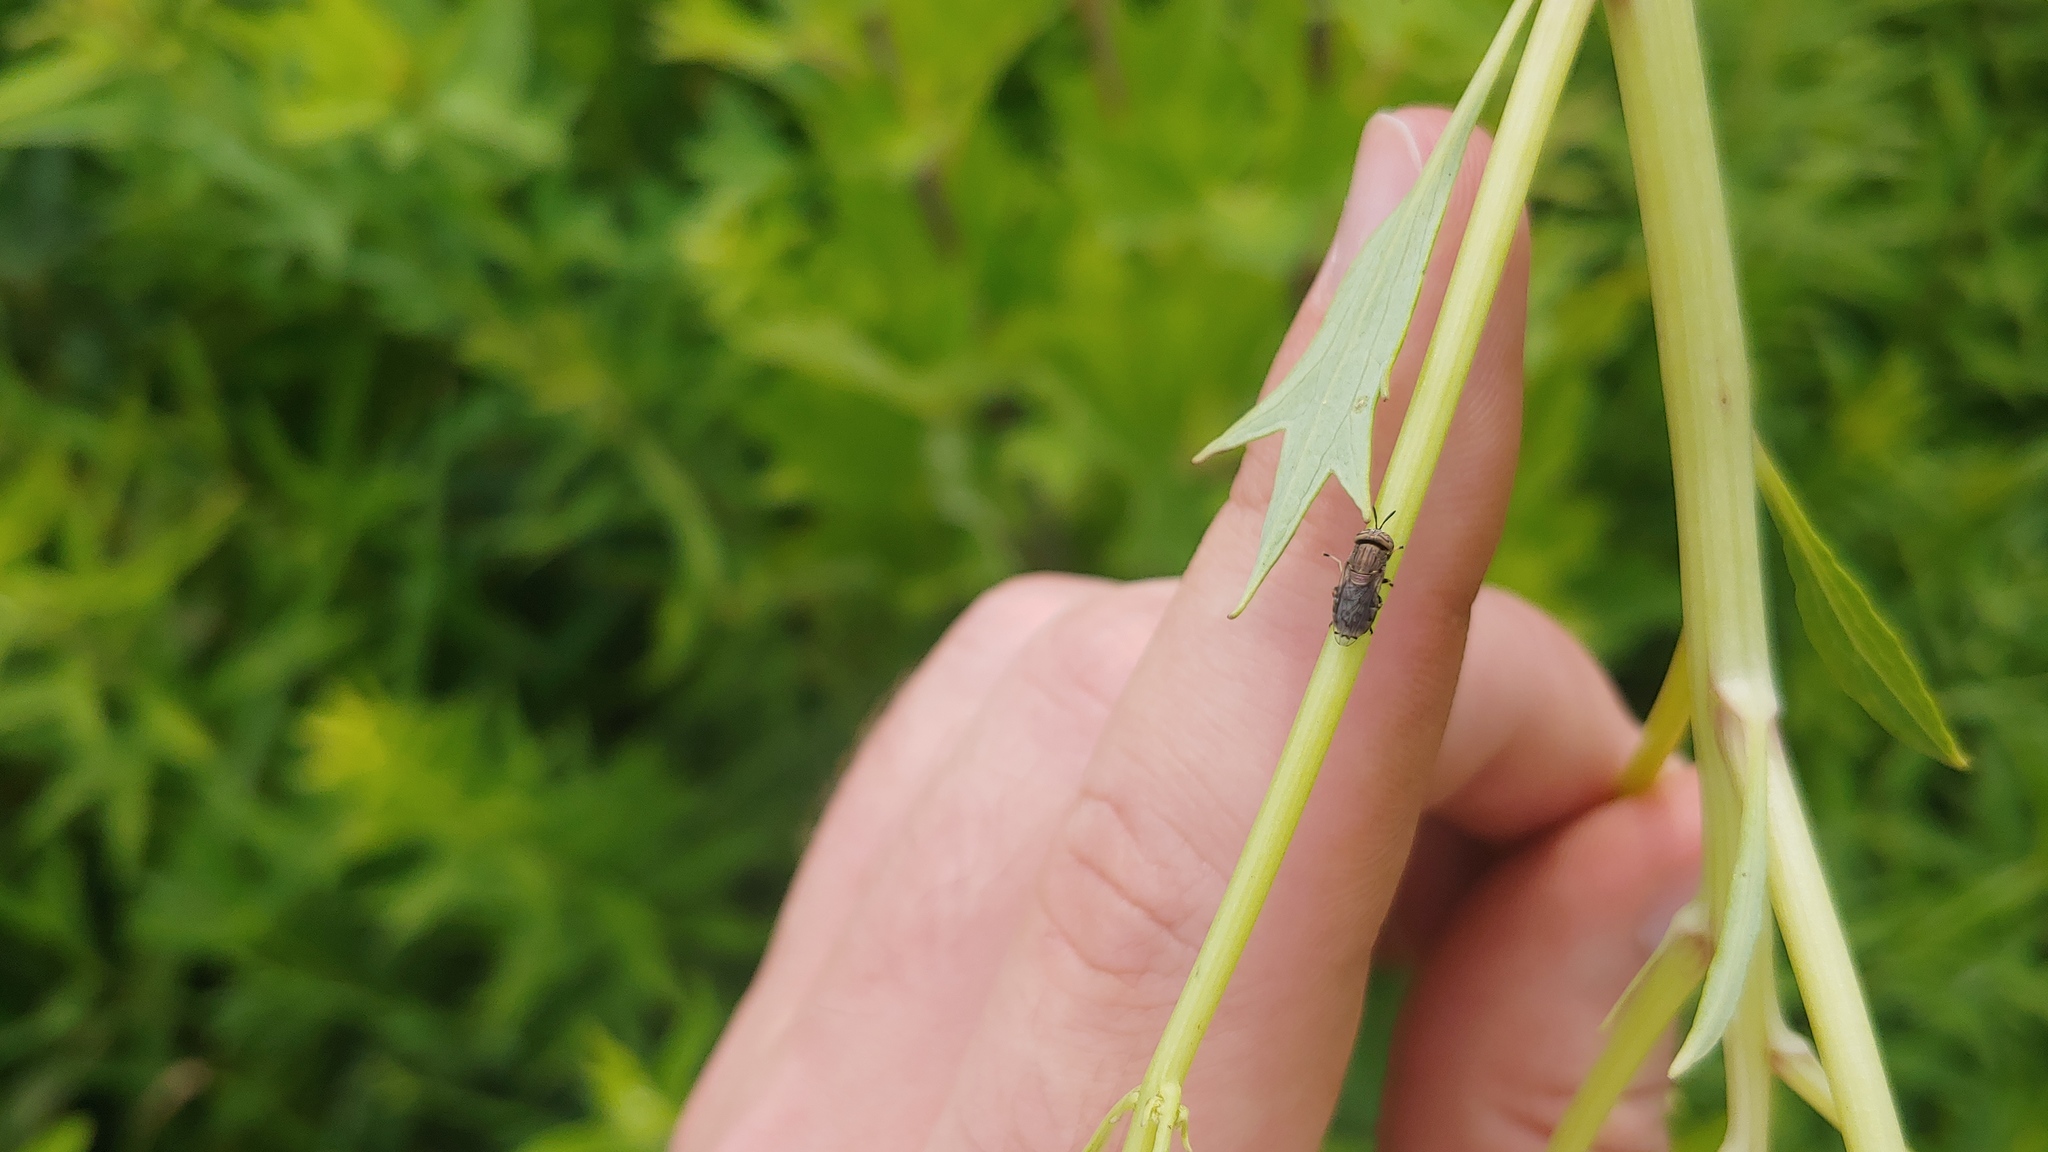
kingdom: Animalia
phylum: Arthropoda
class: Insecta
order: Diptera
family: Syrphidae
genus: Orthonevra
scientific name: Orthonevra nitida
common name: Wavy mucksucker
